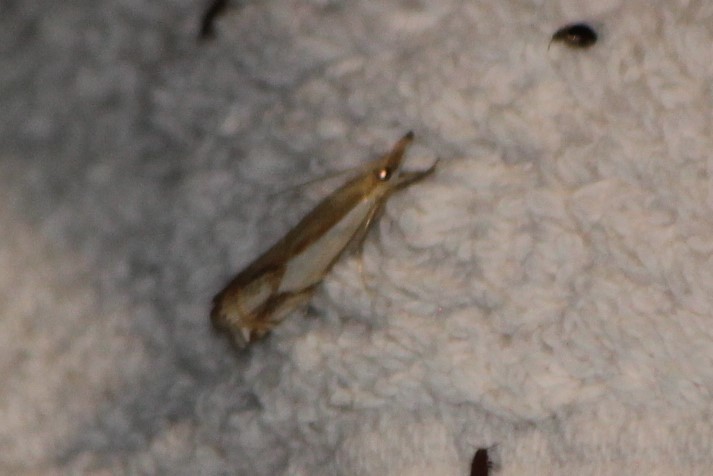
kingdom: Animalia
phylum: Arthropoda
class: Insecta
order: Lepidoptera
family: Crambidae
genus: Crambus
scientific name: Crambus agitatellus
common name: Double-banded grass-veneer
